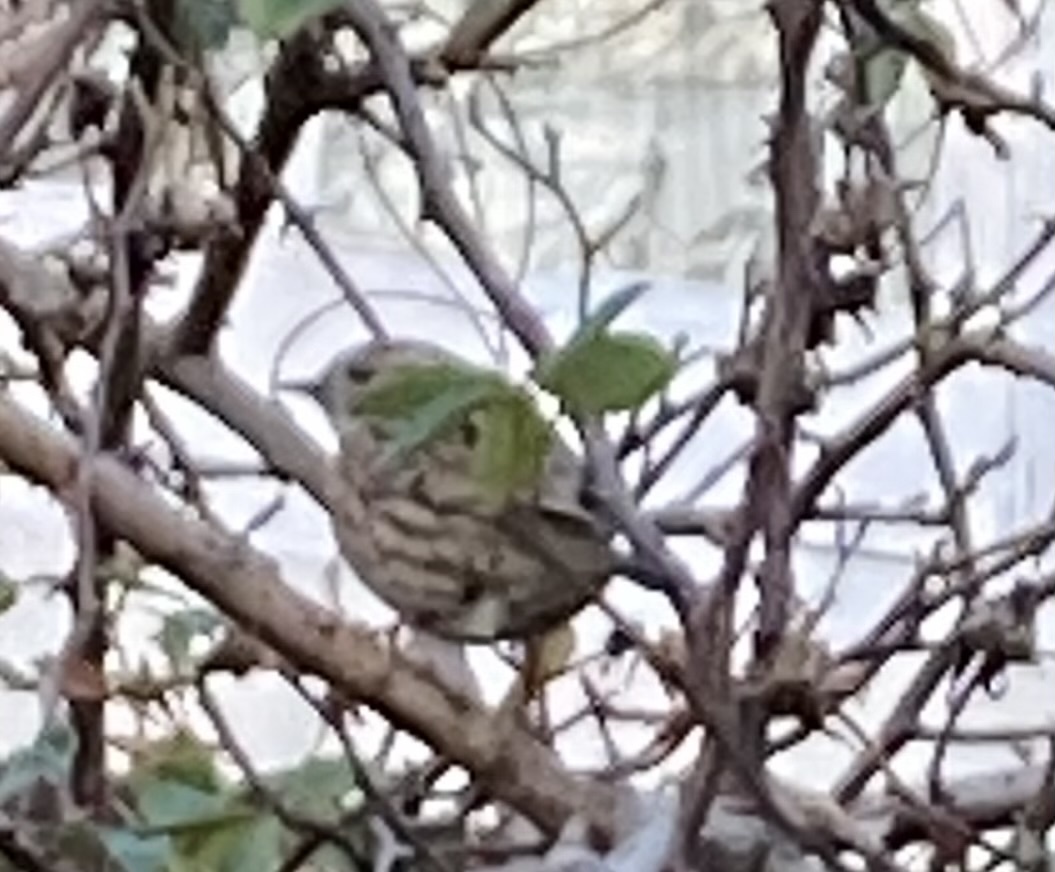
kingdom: Animalia
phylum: Chordata
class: Aves
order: Passeriformes
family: Prunellidae
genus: Prunella
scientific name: Prunella modularis
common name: Dunnock
